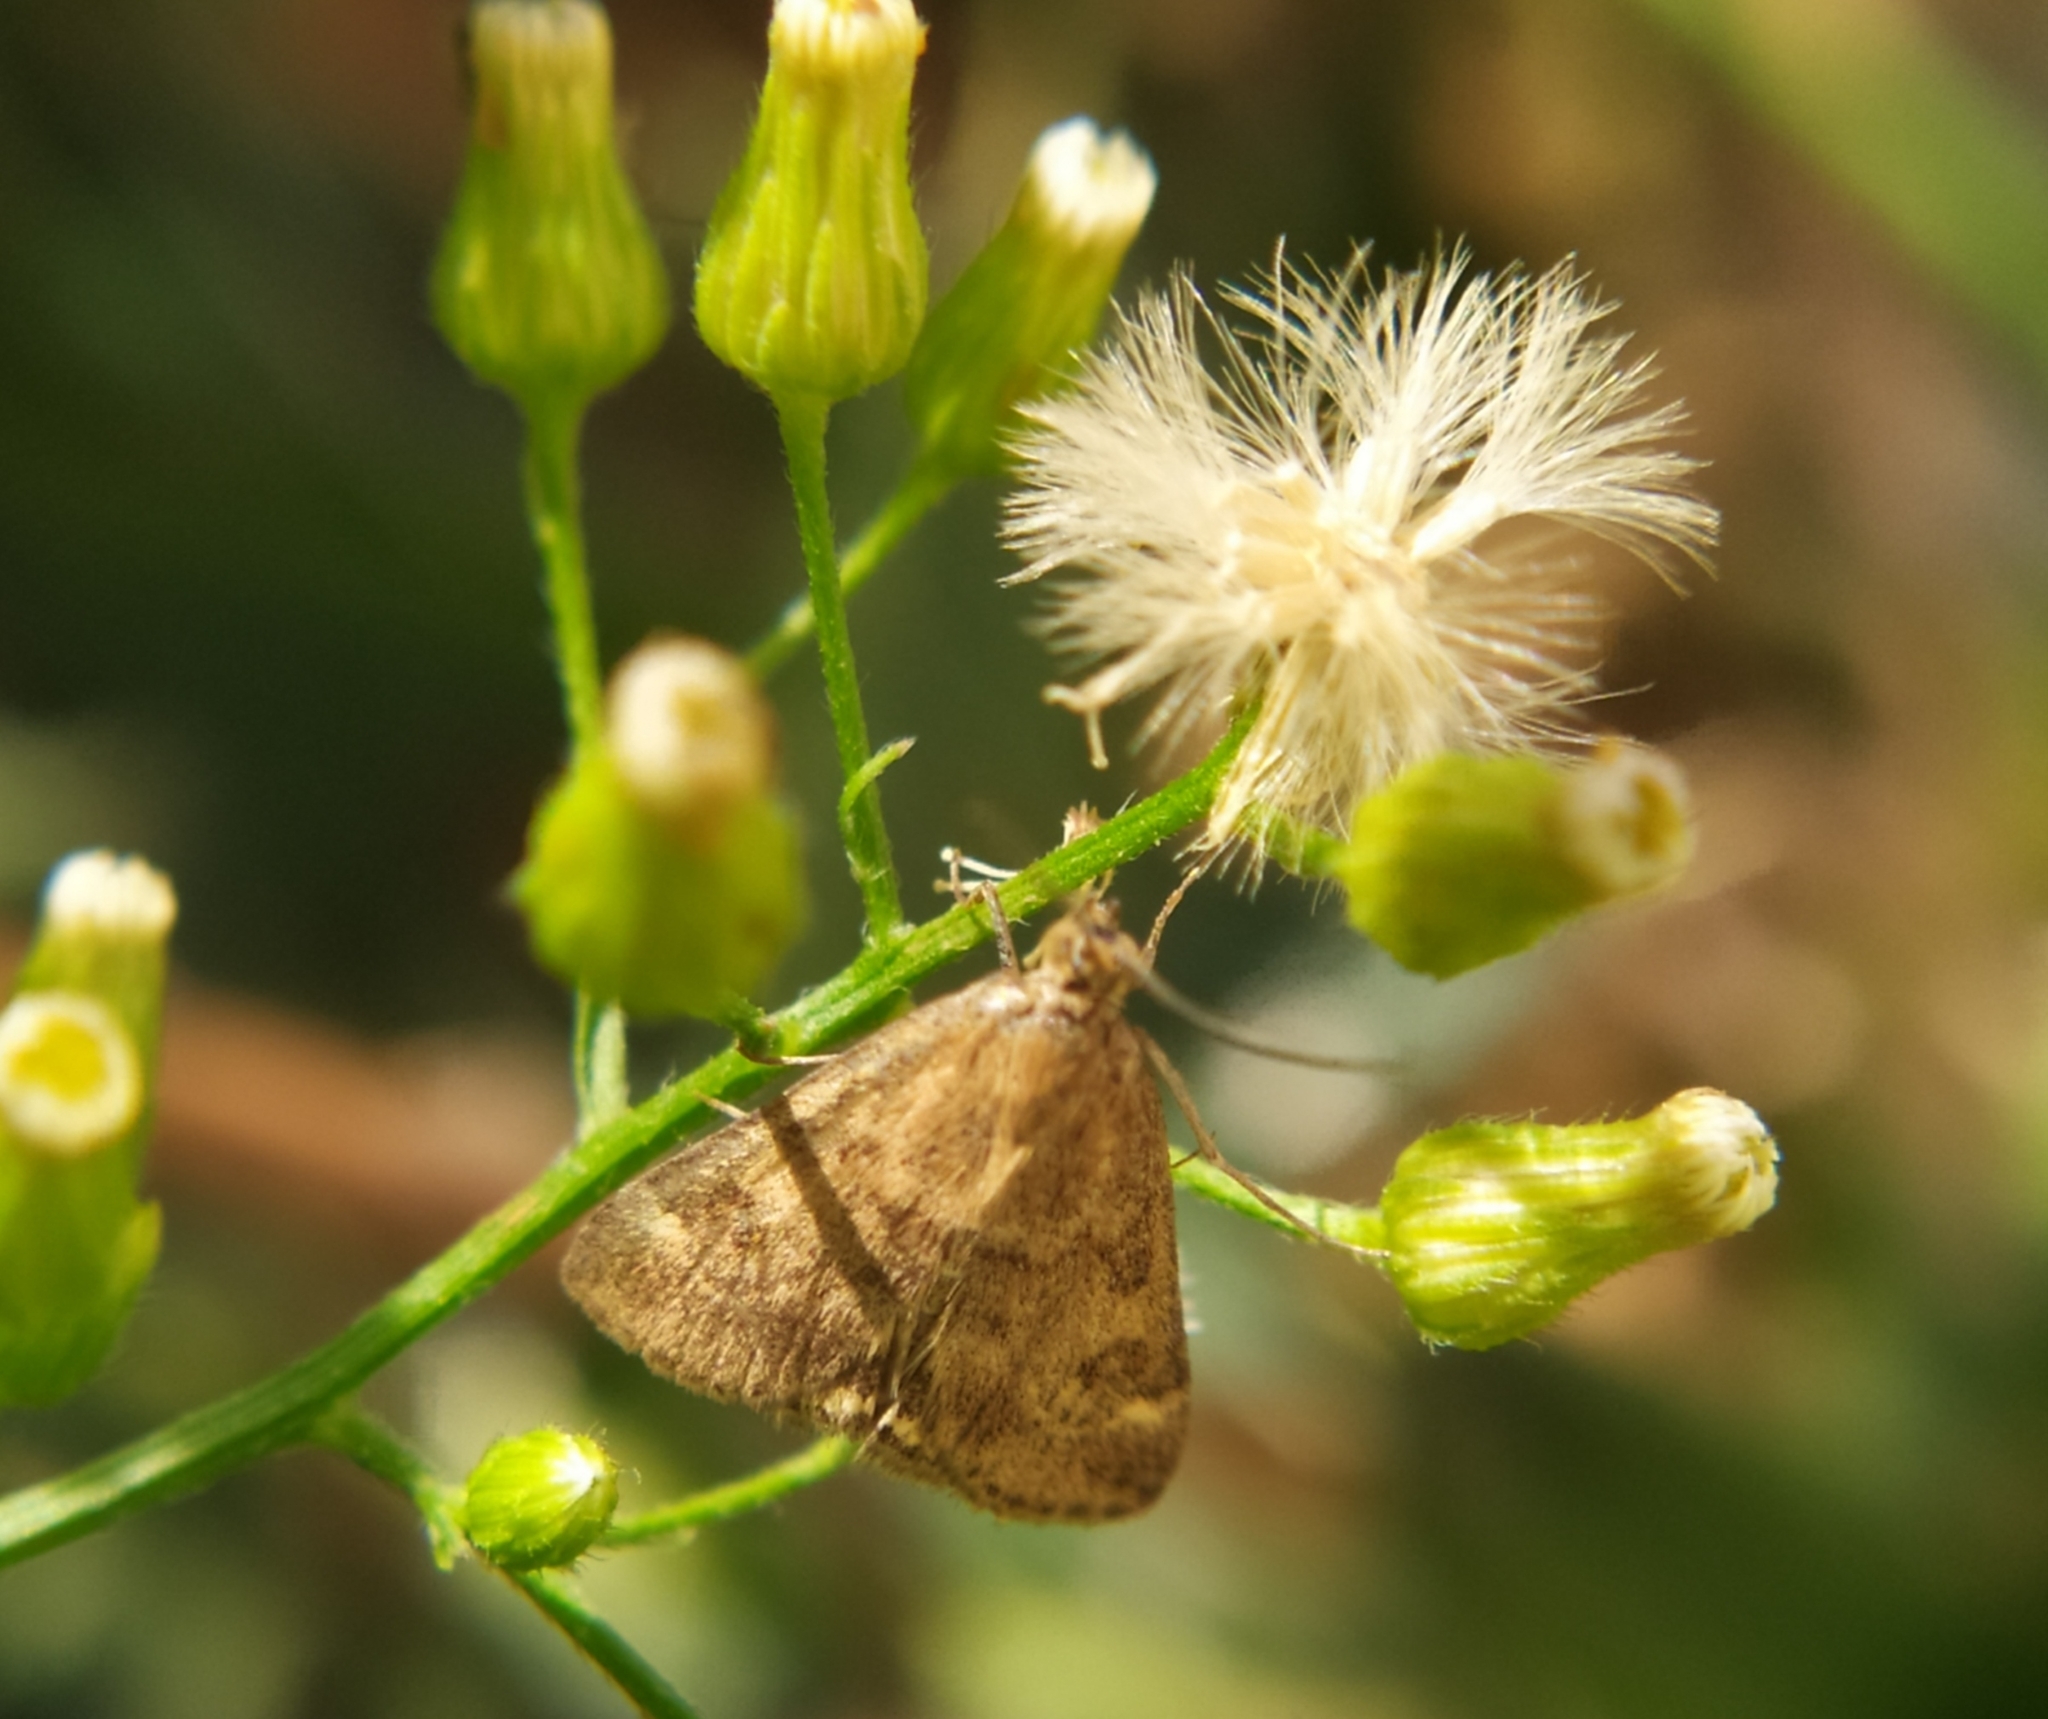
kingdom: Animalia
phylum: Arthropoda
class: Insecta
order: Lepidoptera
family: Crambidae
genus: Pyrausta
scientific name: Pyrausta despicata
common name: Straw-barred pearl
